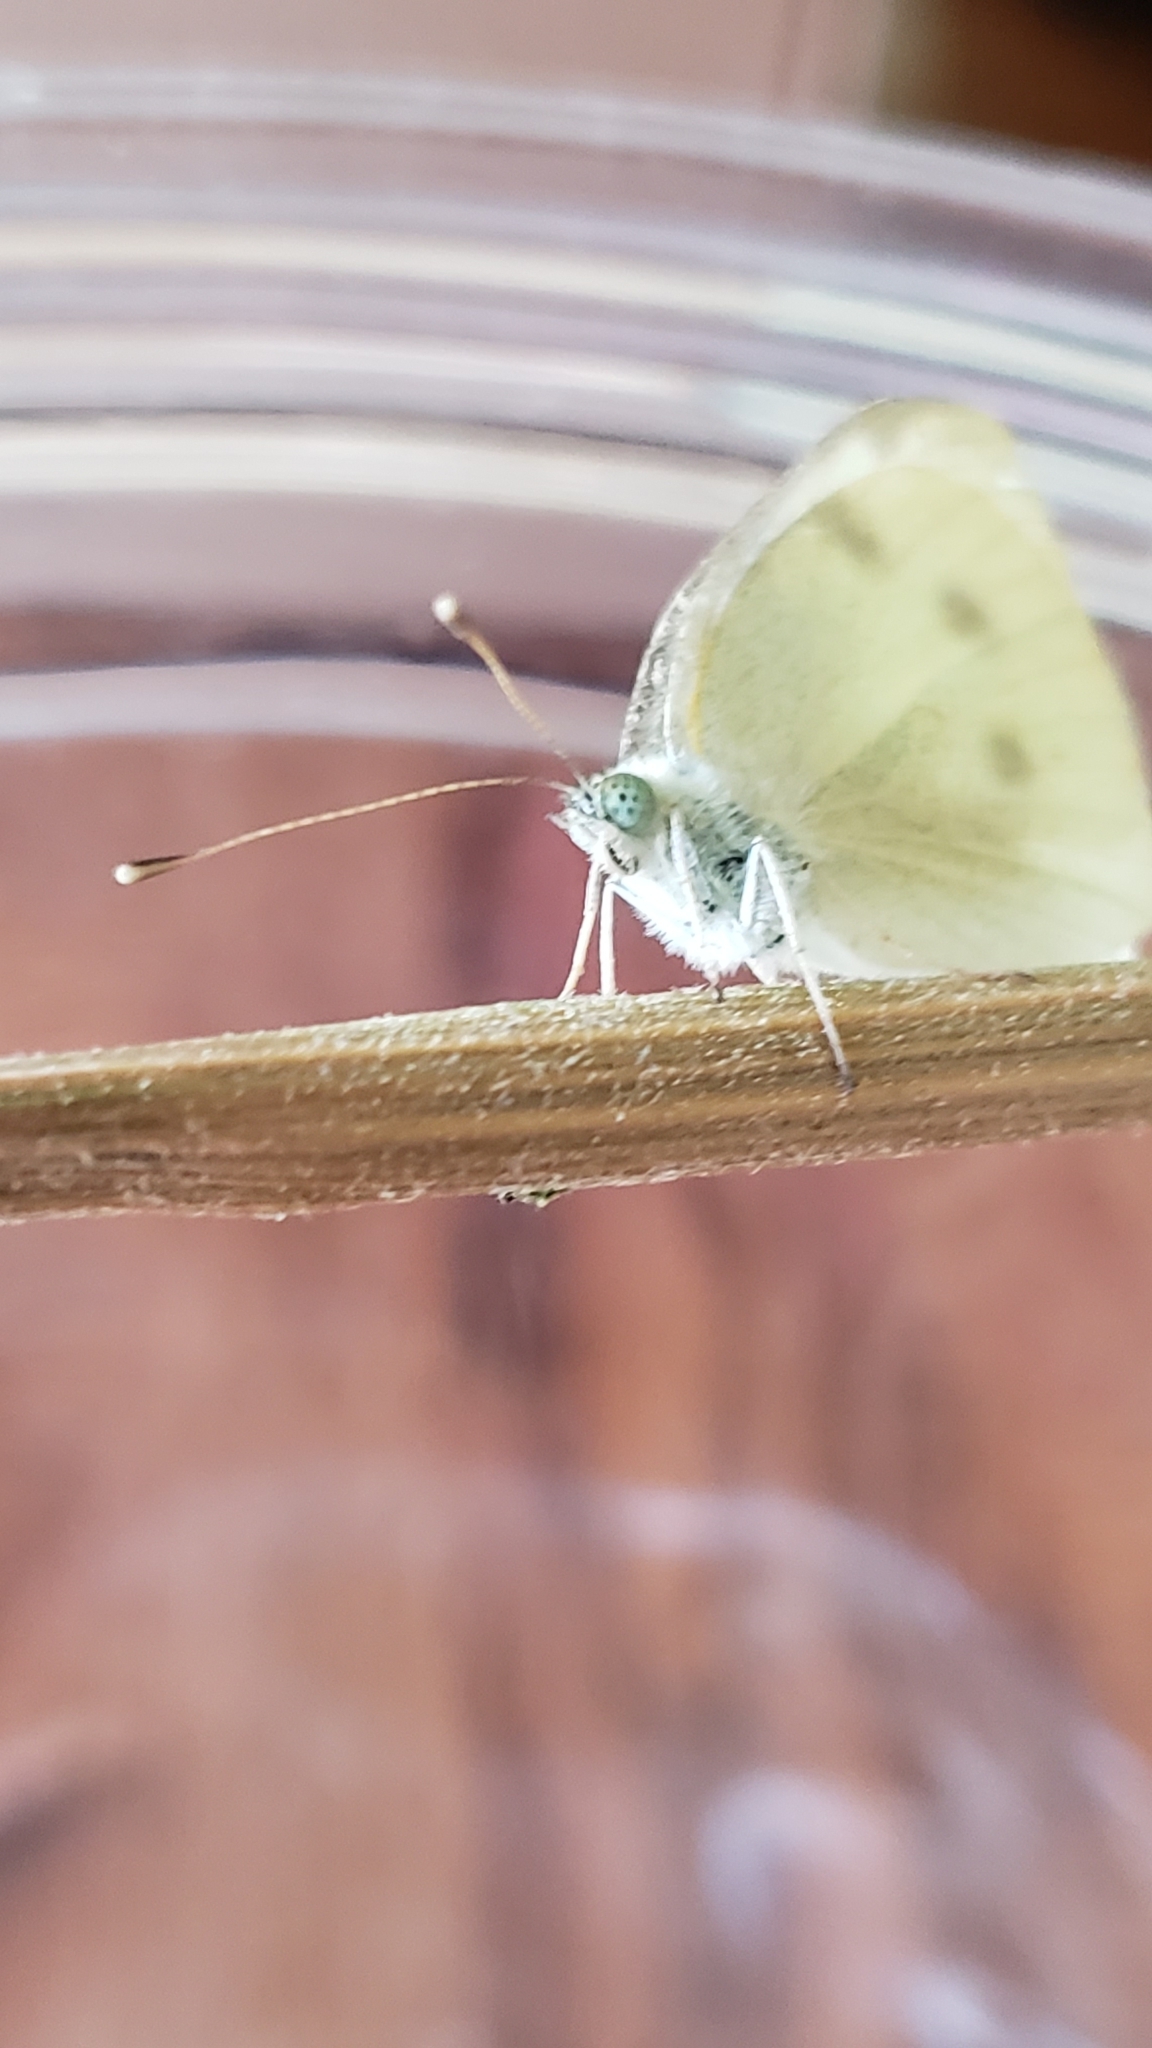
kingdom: Animalia
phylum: Arthropoda
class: Insecta
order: Lepidoptera
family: Pieridae
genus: Pieris
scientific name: Pieris rapae
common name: Small white
